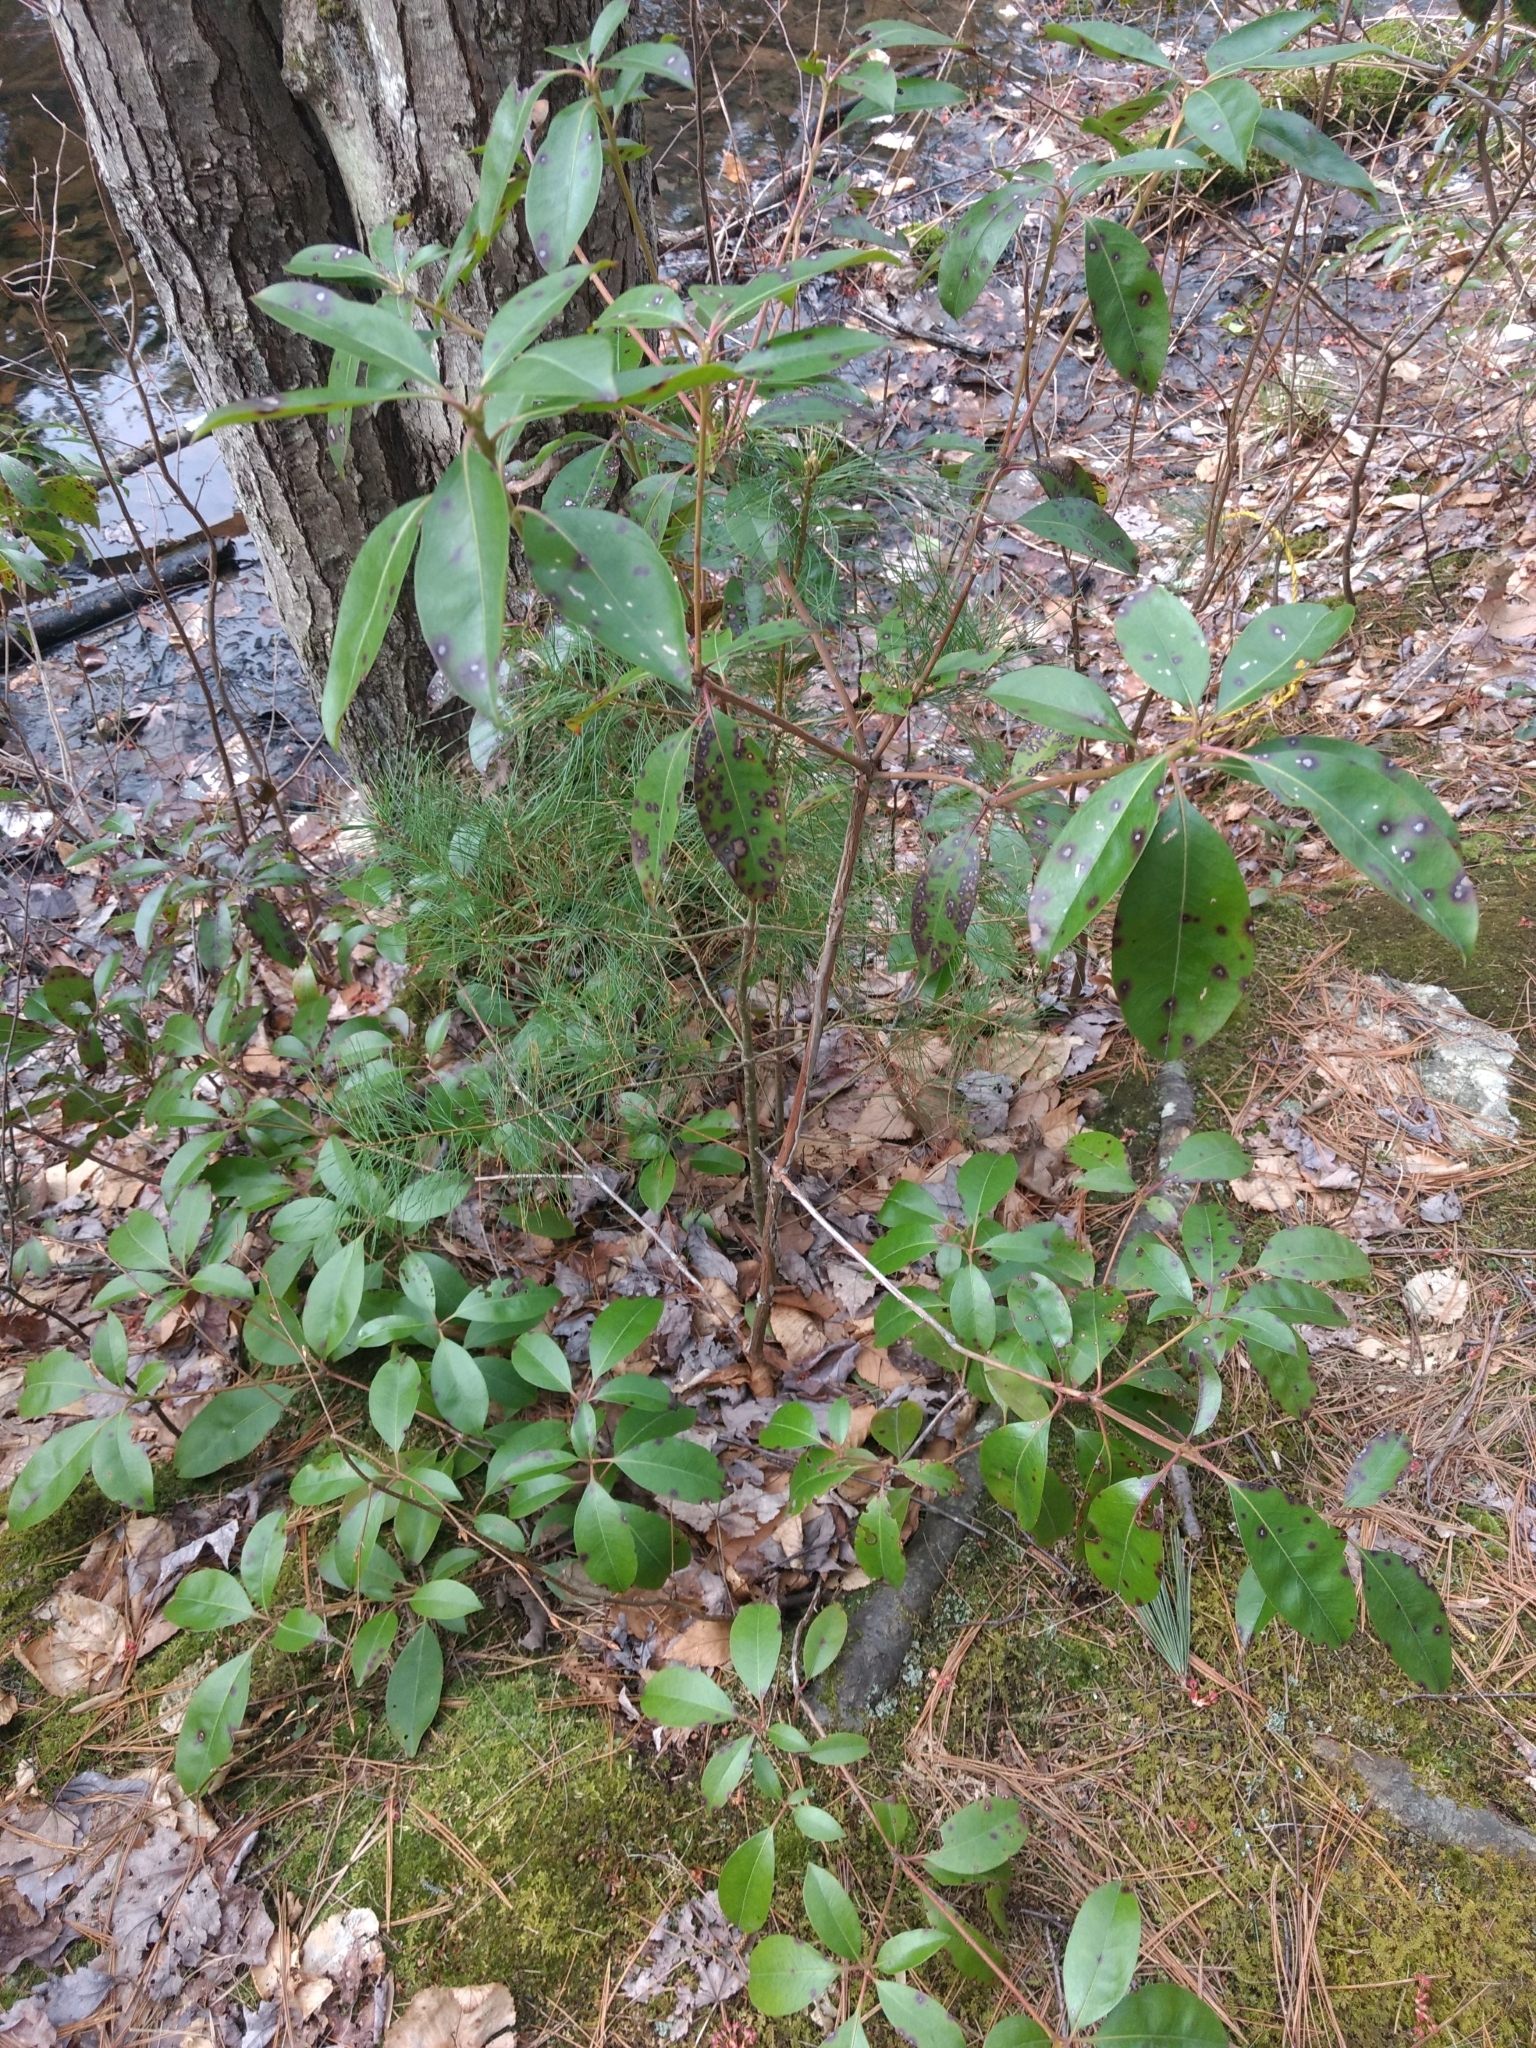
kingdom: Plantae
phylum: Tracheophyta
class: Magnoliopsida
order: Ericales
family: Ericaceae
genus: Kalmia
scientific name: Kalmia latifolia
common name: Mountain-laurel
